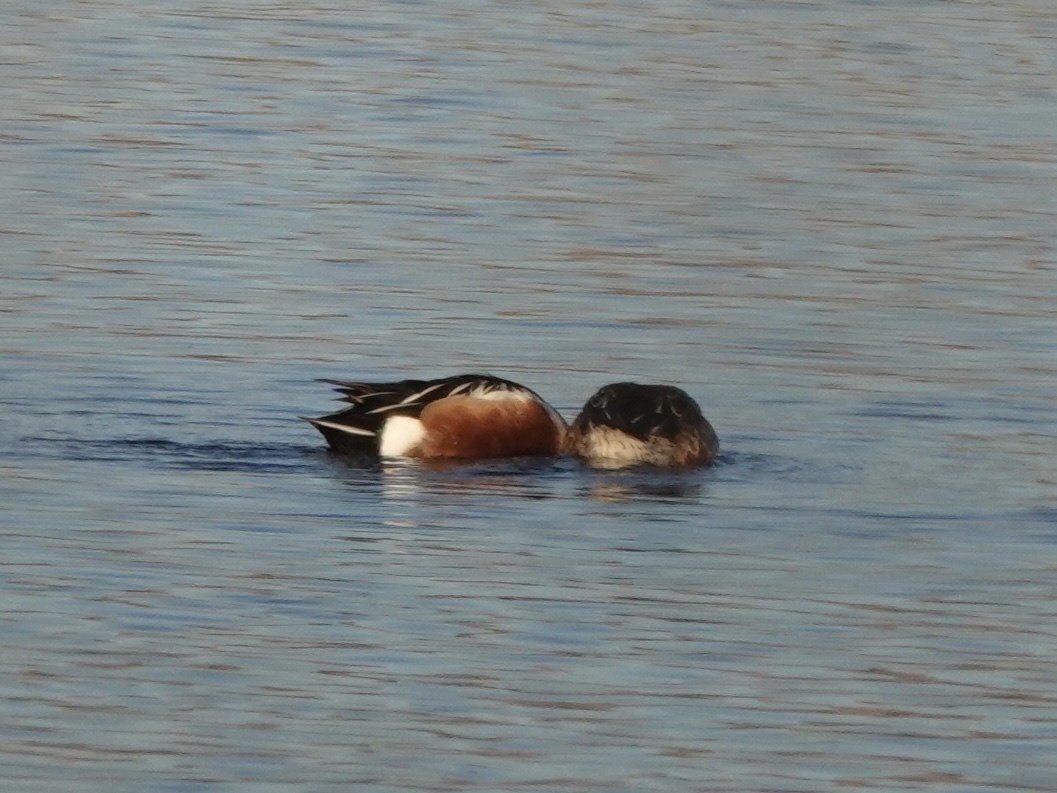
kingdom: Animalia
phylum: Chordata
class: Aves
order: Anseriformes
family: Anatidae
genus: Spatula
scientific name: Spatula clypeata
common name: Northern shoveler
